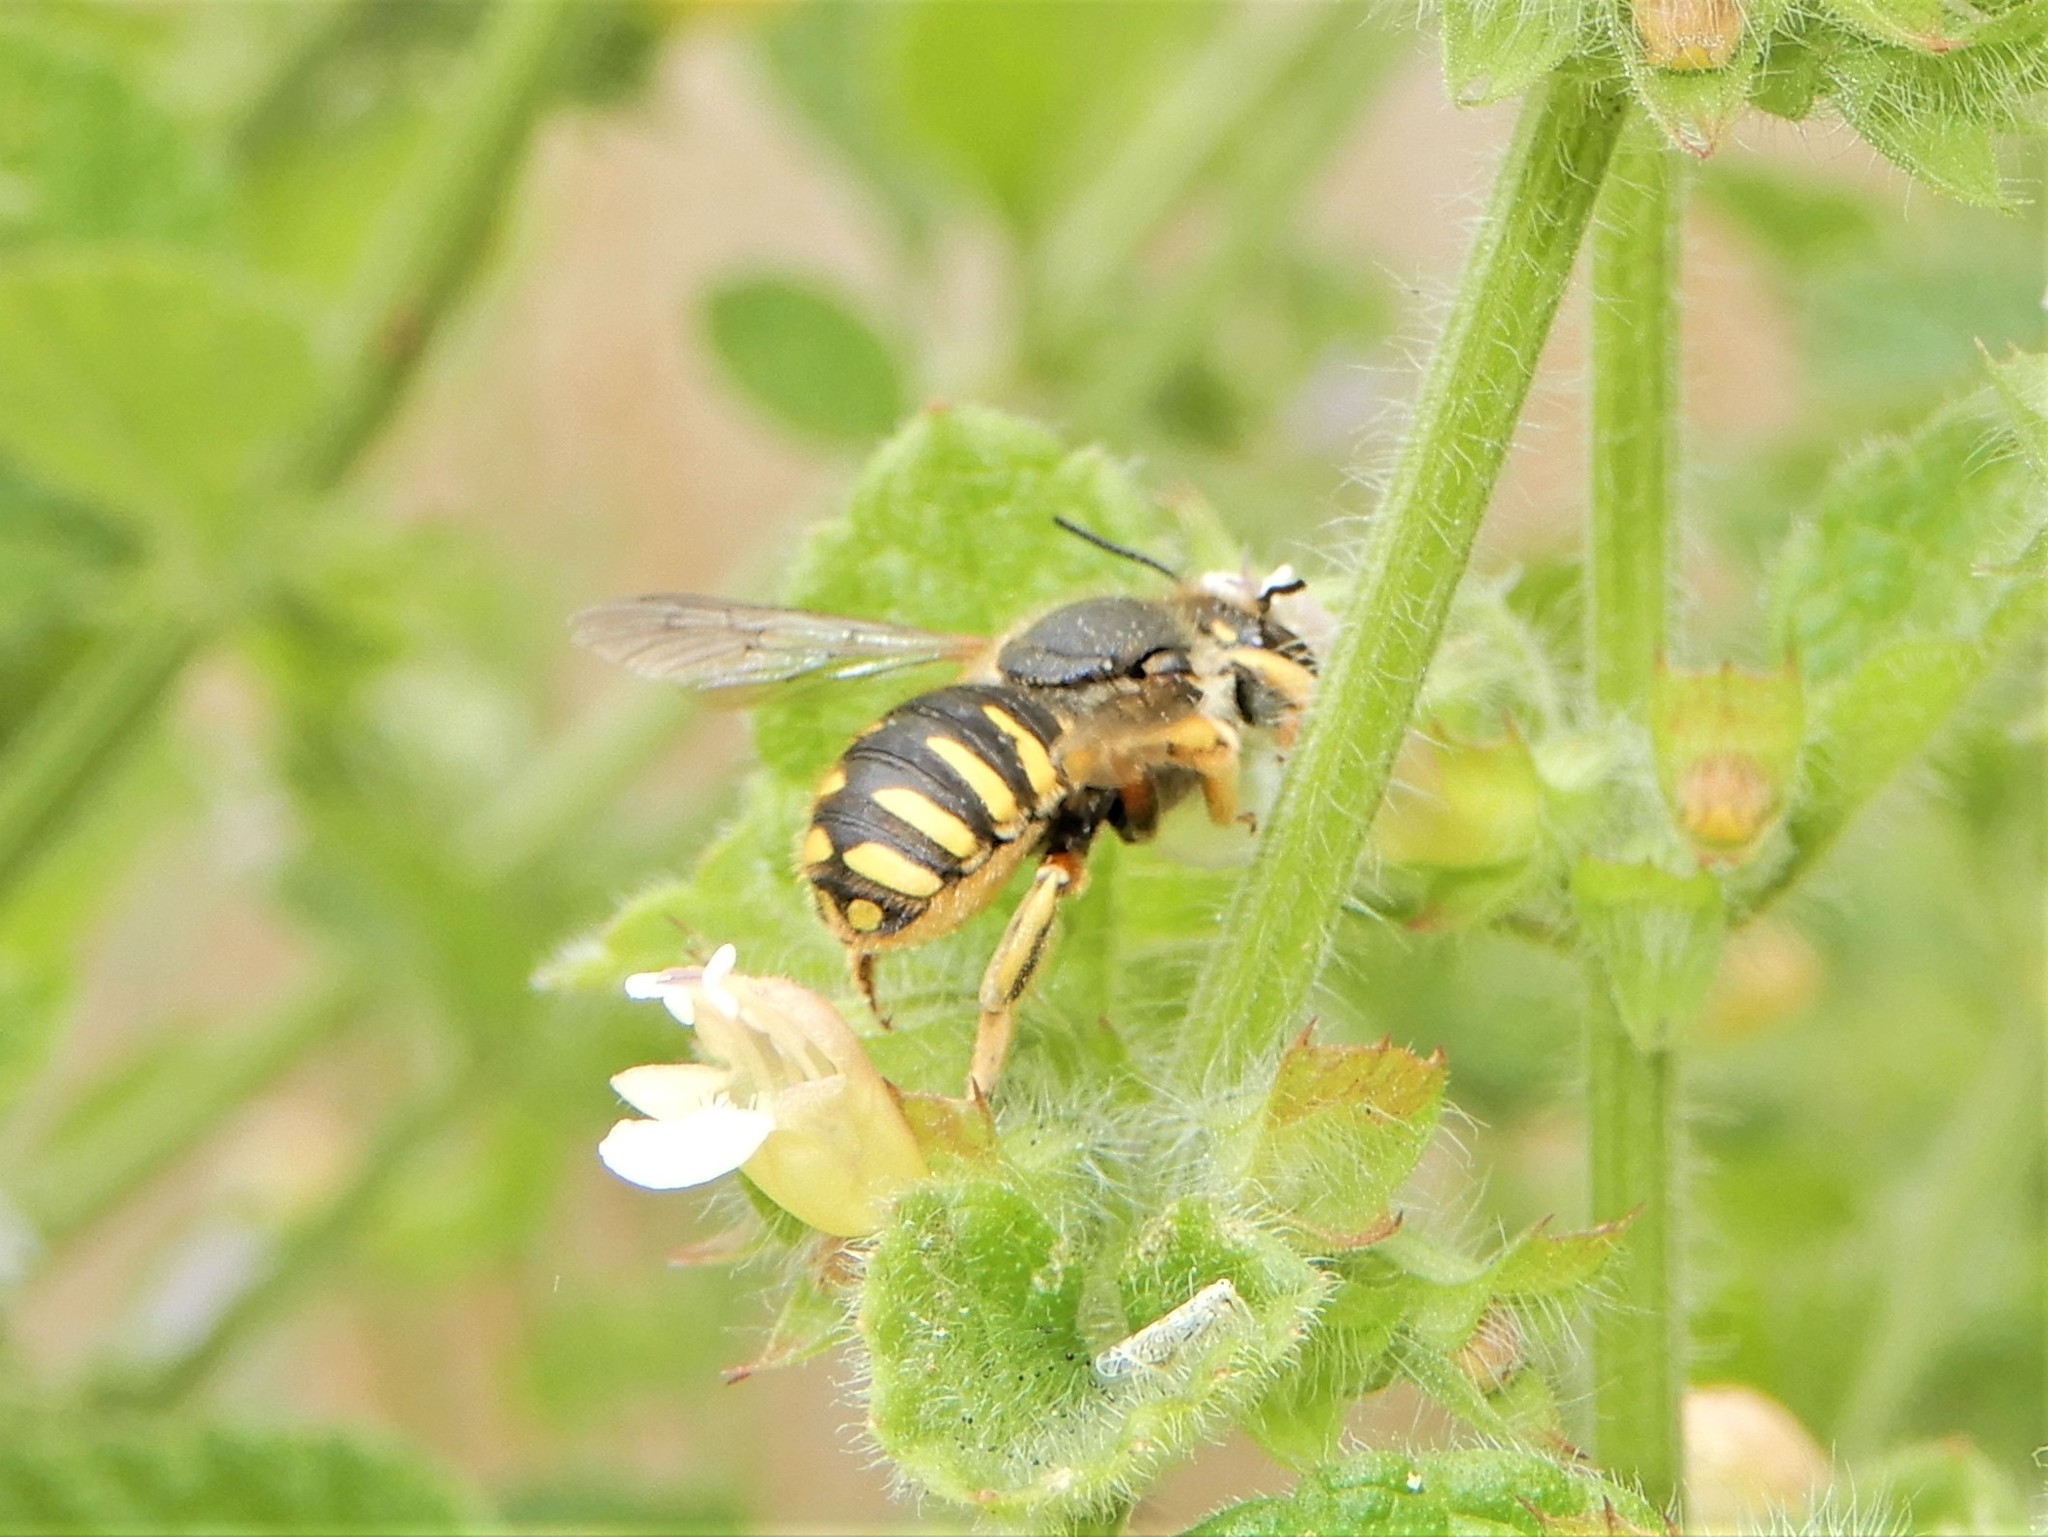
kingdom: Animalia
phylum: Arthropoda
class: Insecta
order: Hymenoptera
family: Megachilidae
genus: Anthidium
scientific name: Anthidium manicatum
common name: Wool carder bee
